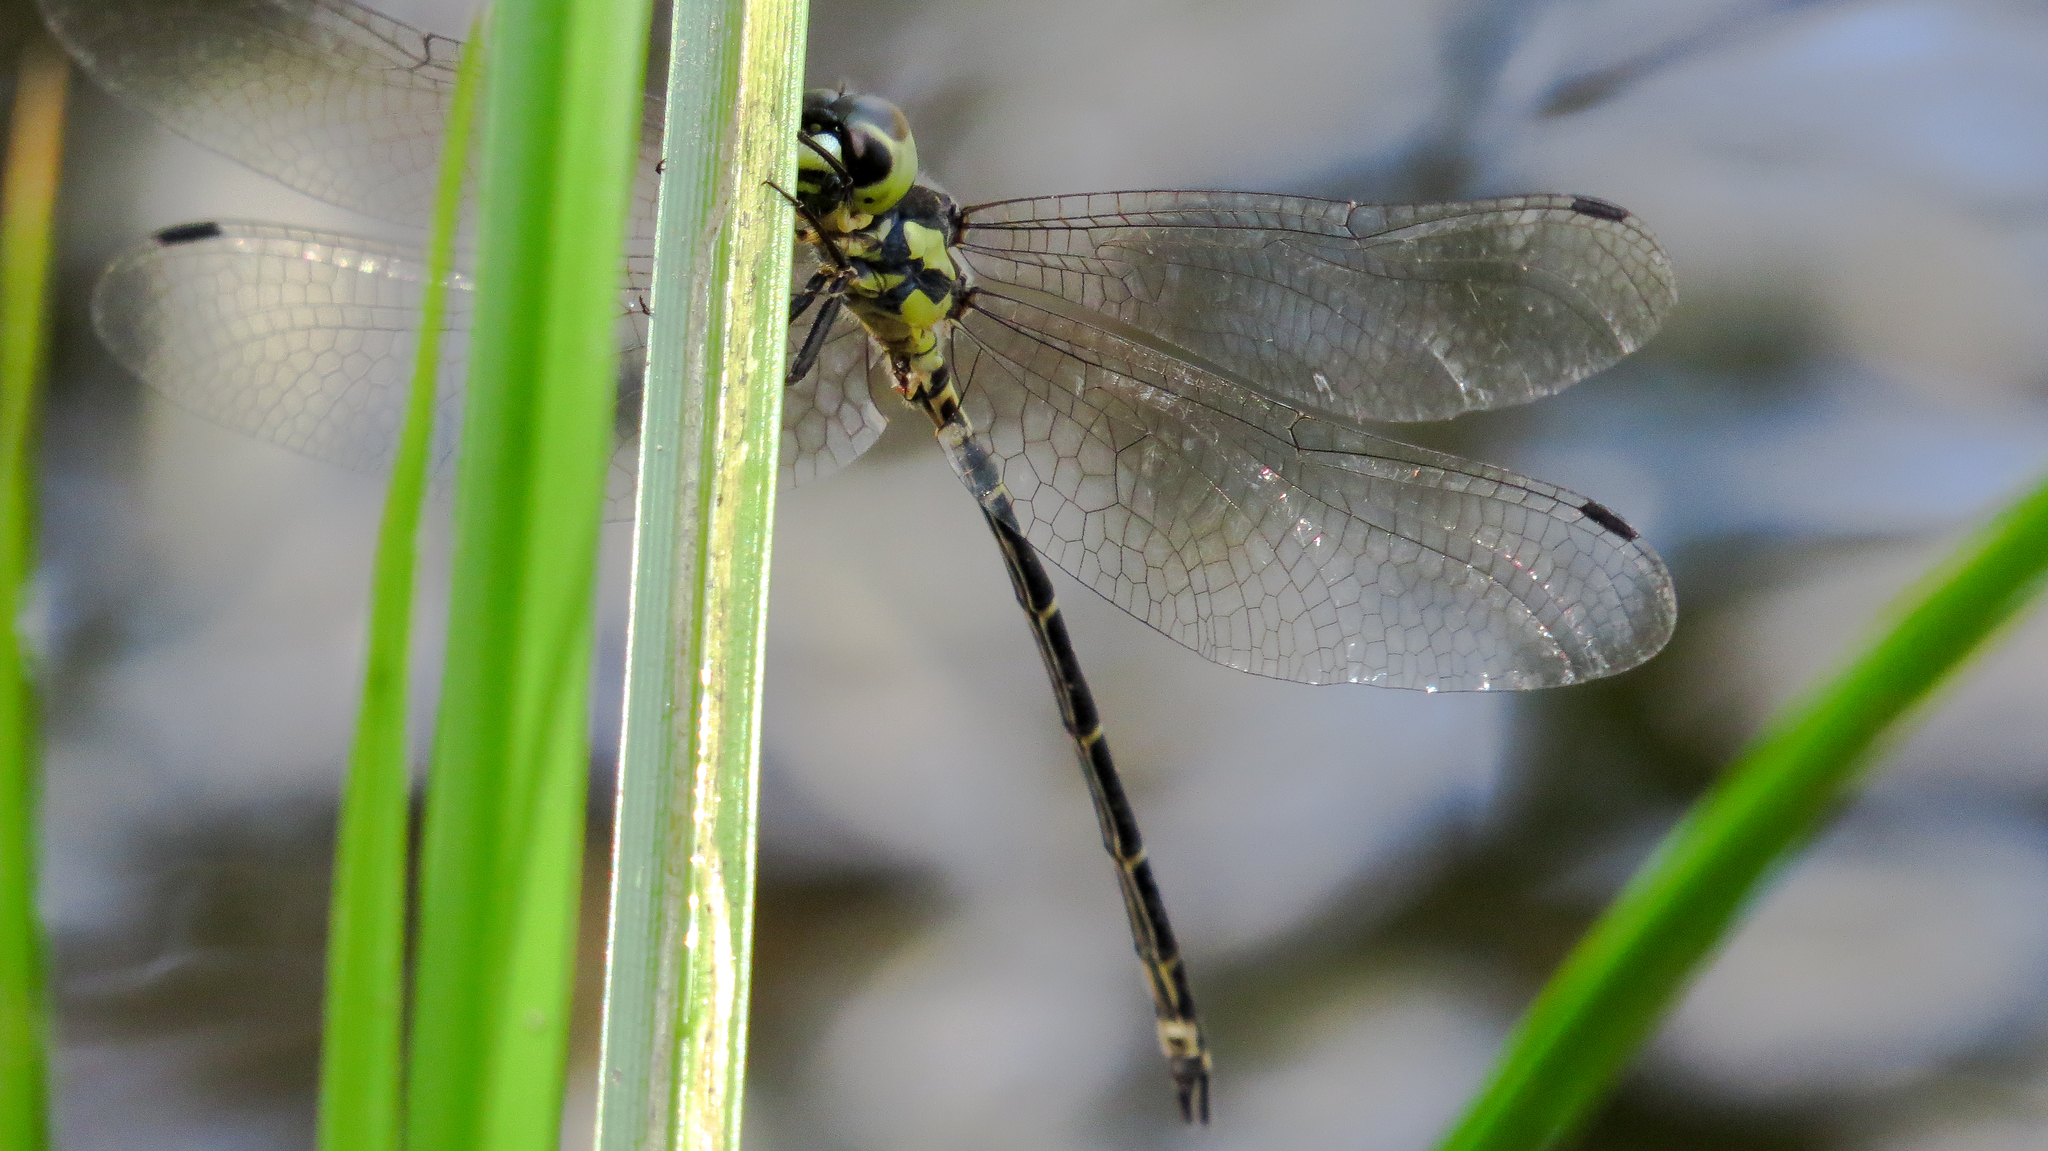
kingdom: Animalia
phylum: Arthropoda
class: Insecta
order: Odonata
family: Synthemistidae
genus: Choristhemis
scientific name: Choristhemis flavoterminata
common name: Yellow-tipped tigertail
